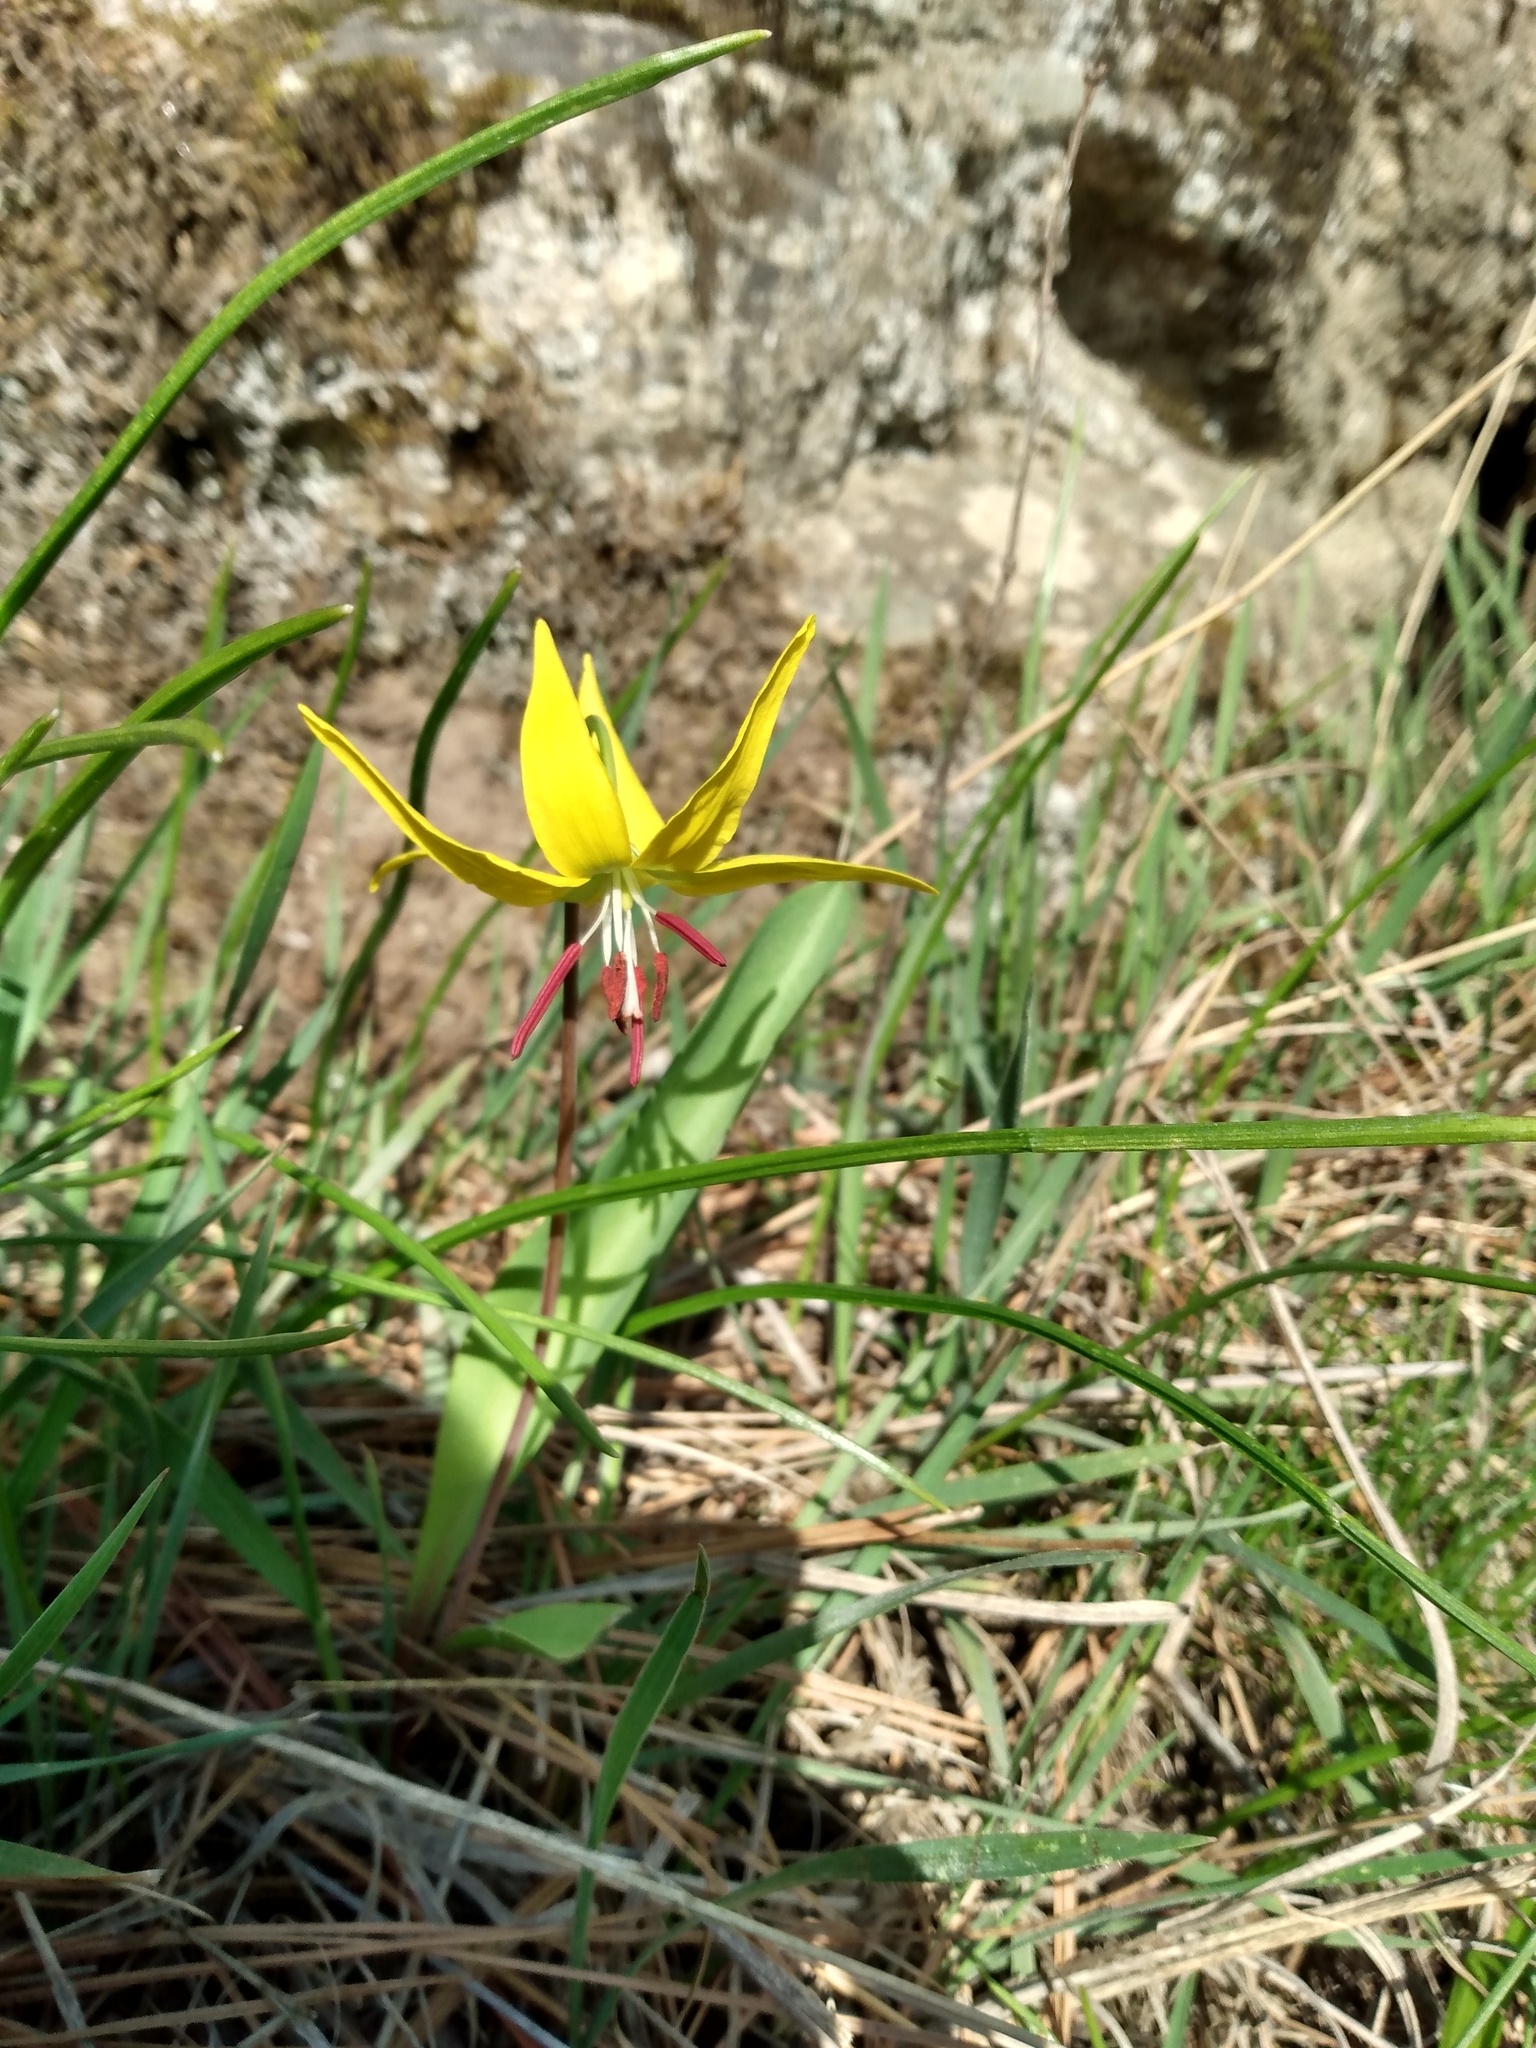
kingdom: Plantae
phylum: Tracheophyta
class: Liliopsida
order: Liliales
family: Liliaceae
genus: Erythronium
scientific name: Erythronium grandiflorum
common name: Avalanche-lily
